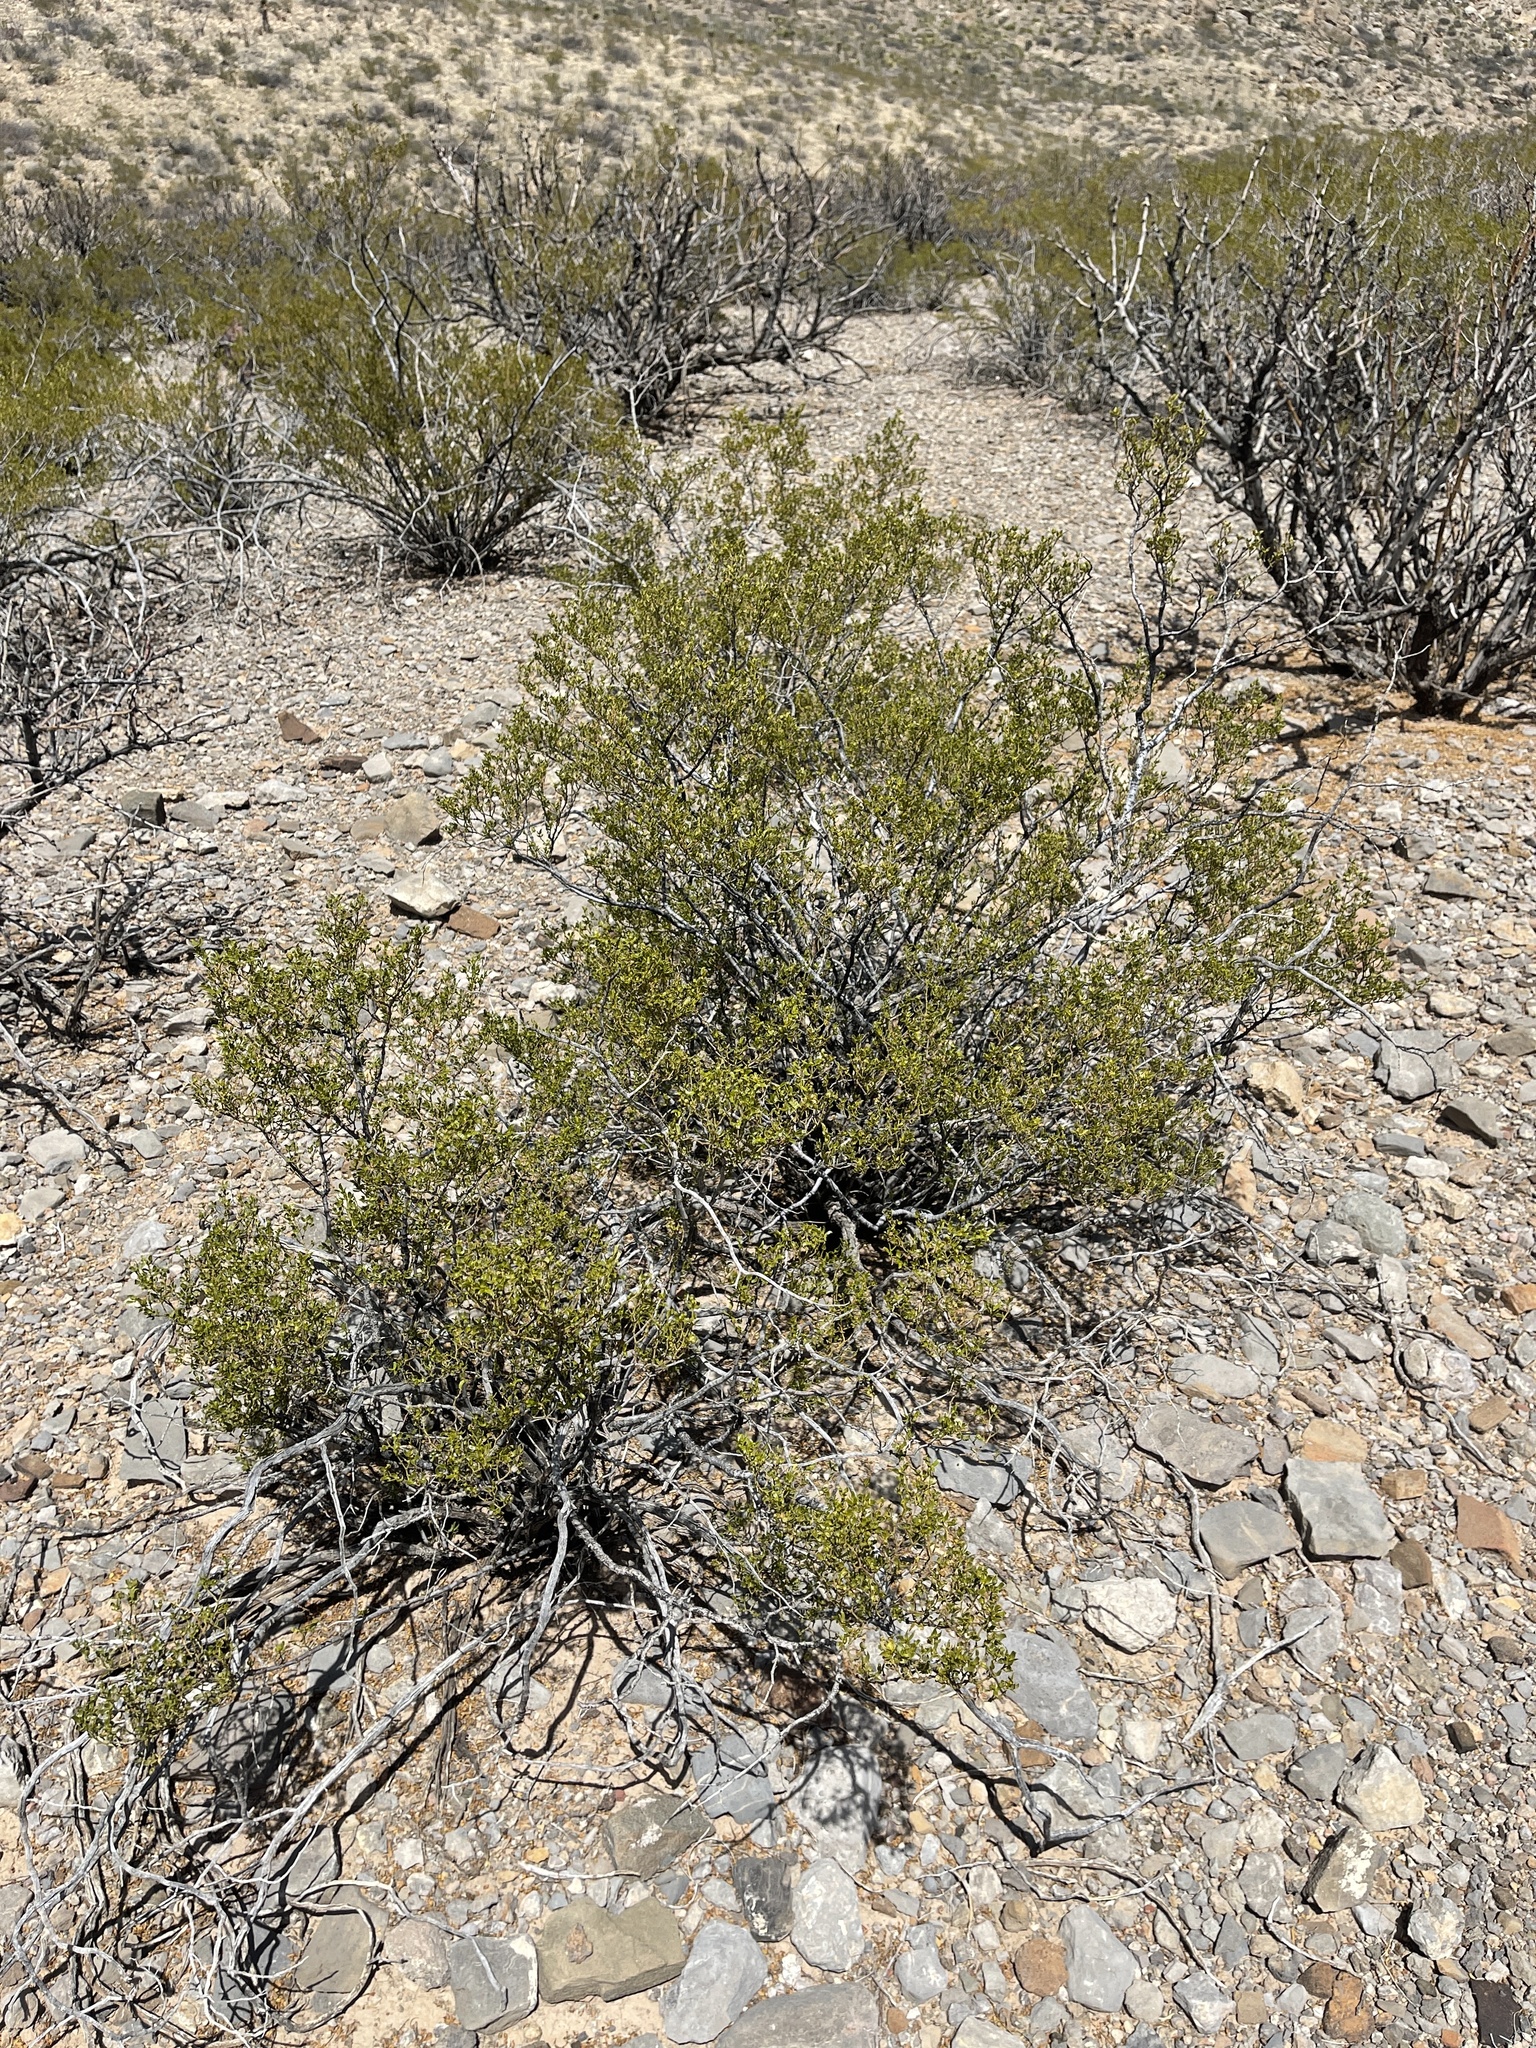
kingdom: Plantae
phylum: Tracheophyta
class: Magnoliopsida
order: Zygophyllales
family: Zygophyllaceae
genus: Larrea
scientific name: Larrea tridentata
